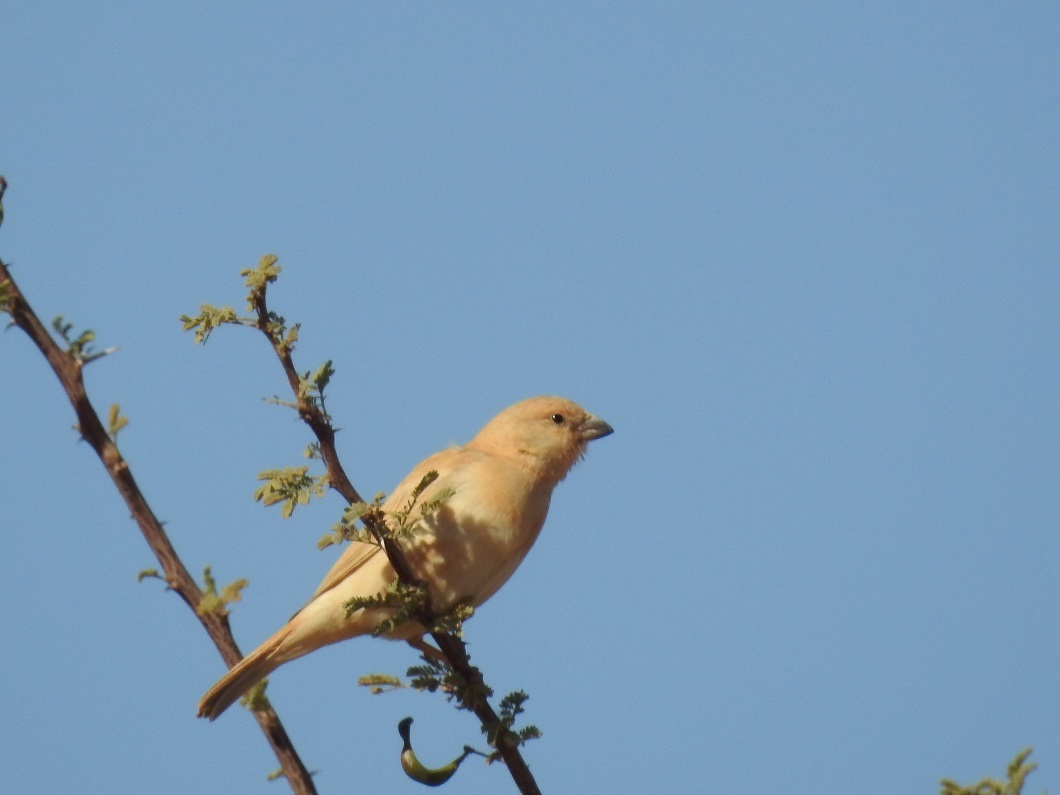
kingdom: Animalia
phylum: Chordata
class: Aves
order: Passeriformes
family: Passeridae
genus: Passer
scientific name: Passer simplex
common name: Desert sparrow
